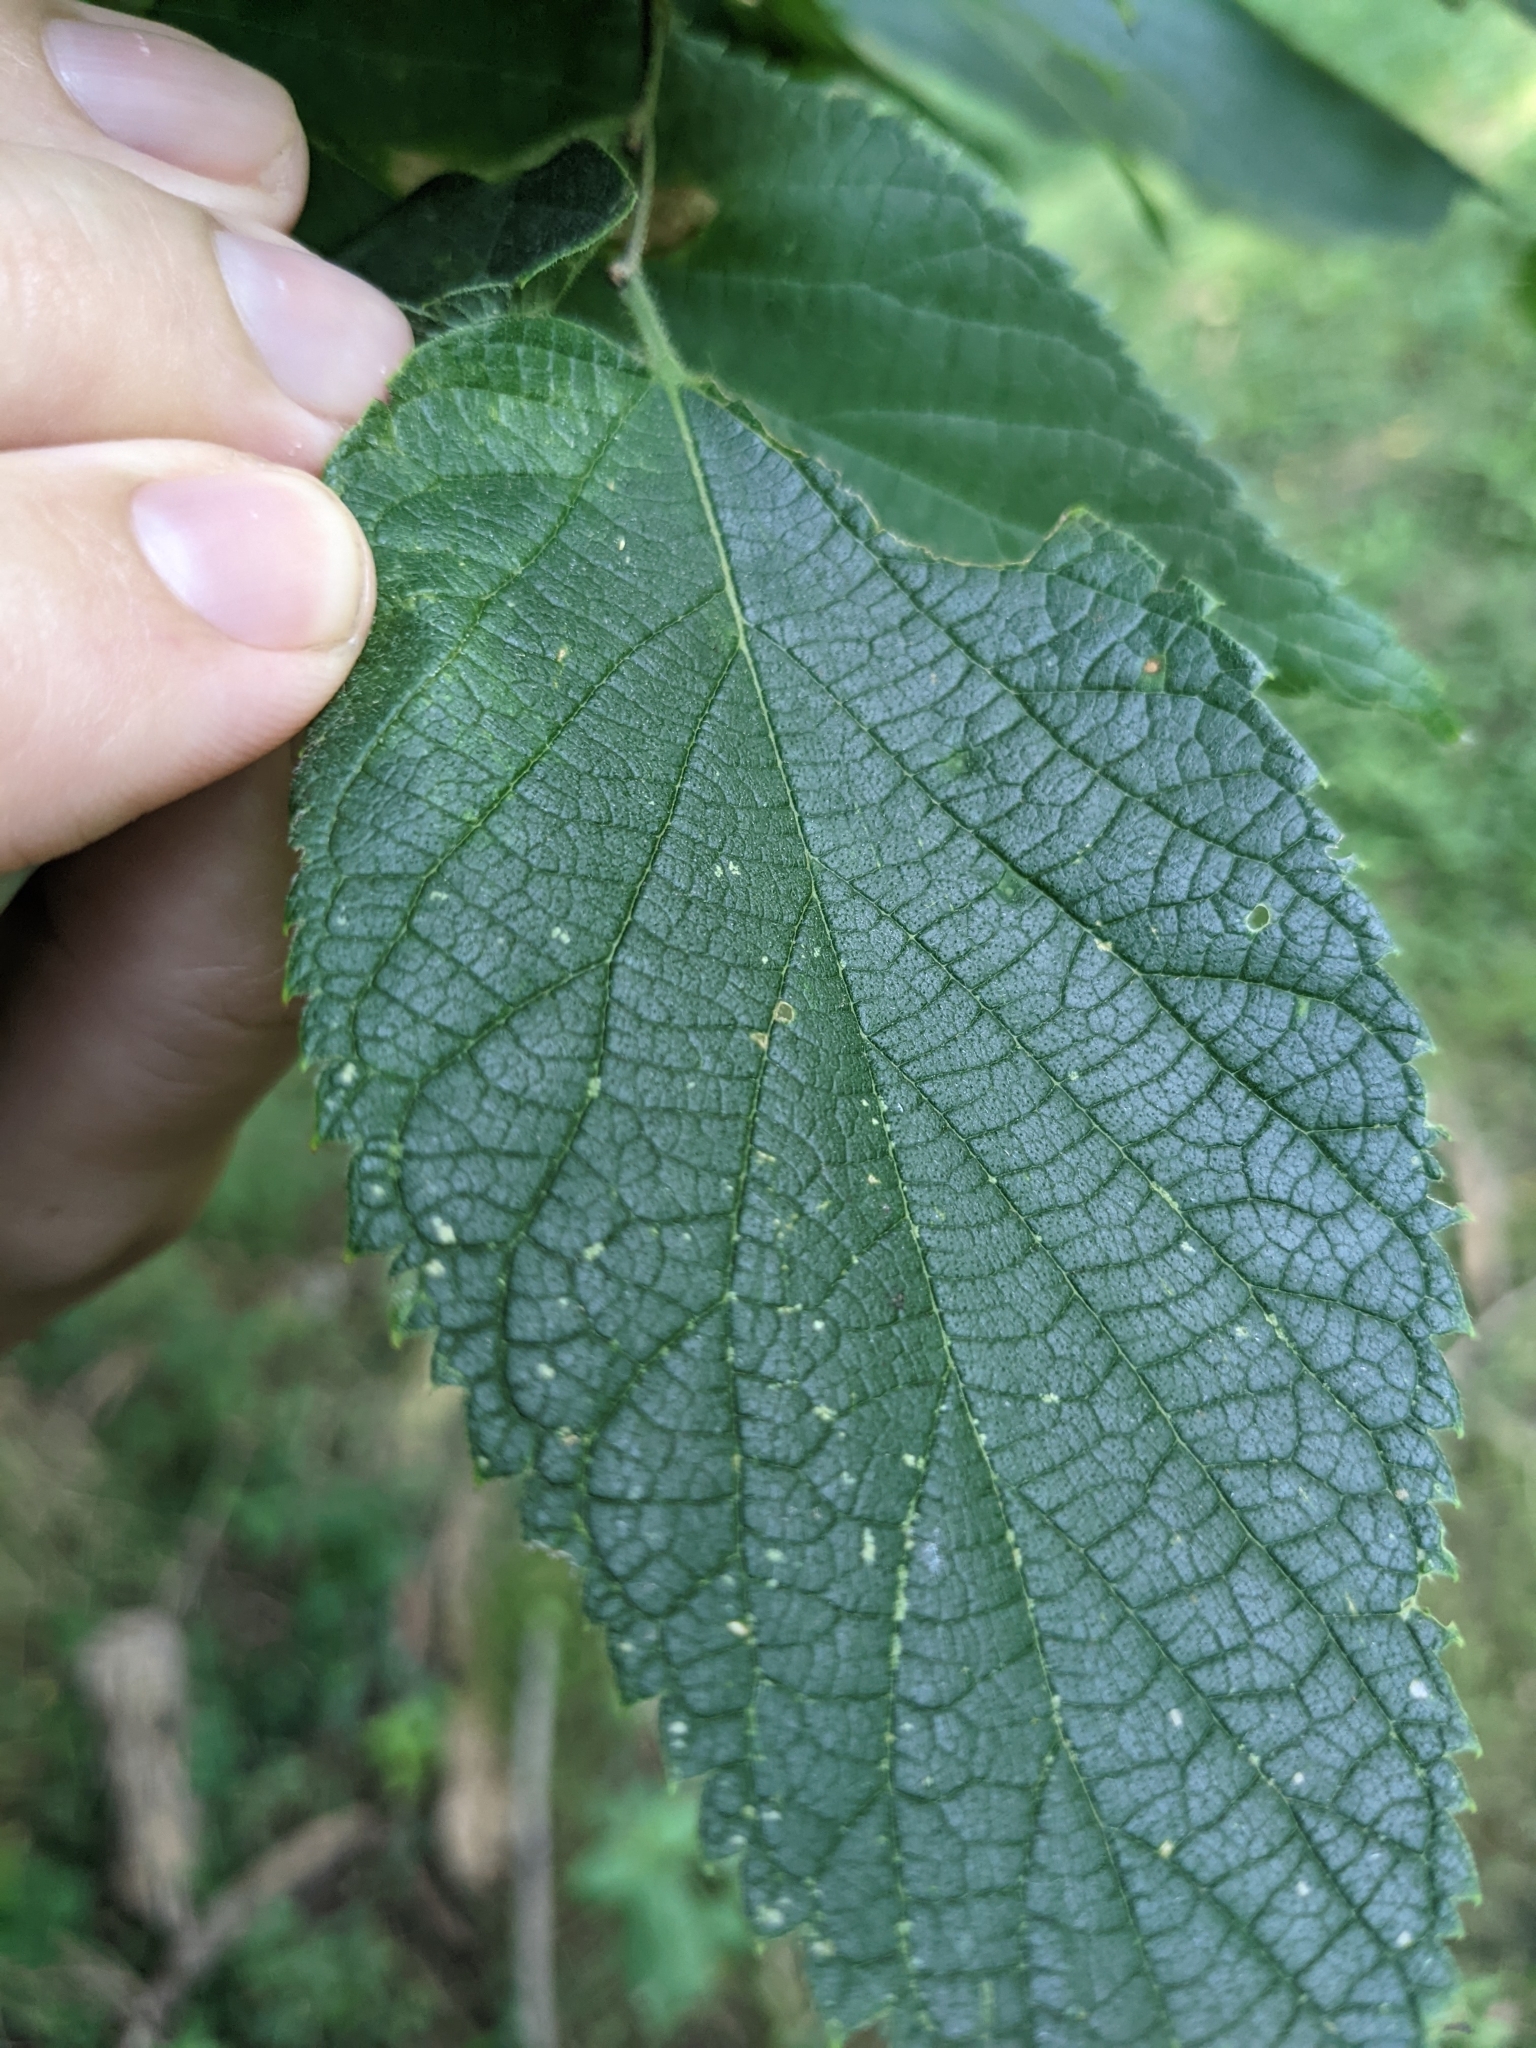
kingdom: Plantae
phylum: Tracheophyta
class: Magnoliopsida
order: Rosales
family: Cannabaceae
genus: Celtis
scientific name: Celtis occidentalis
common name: Common hackberry
